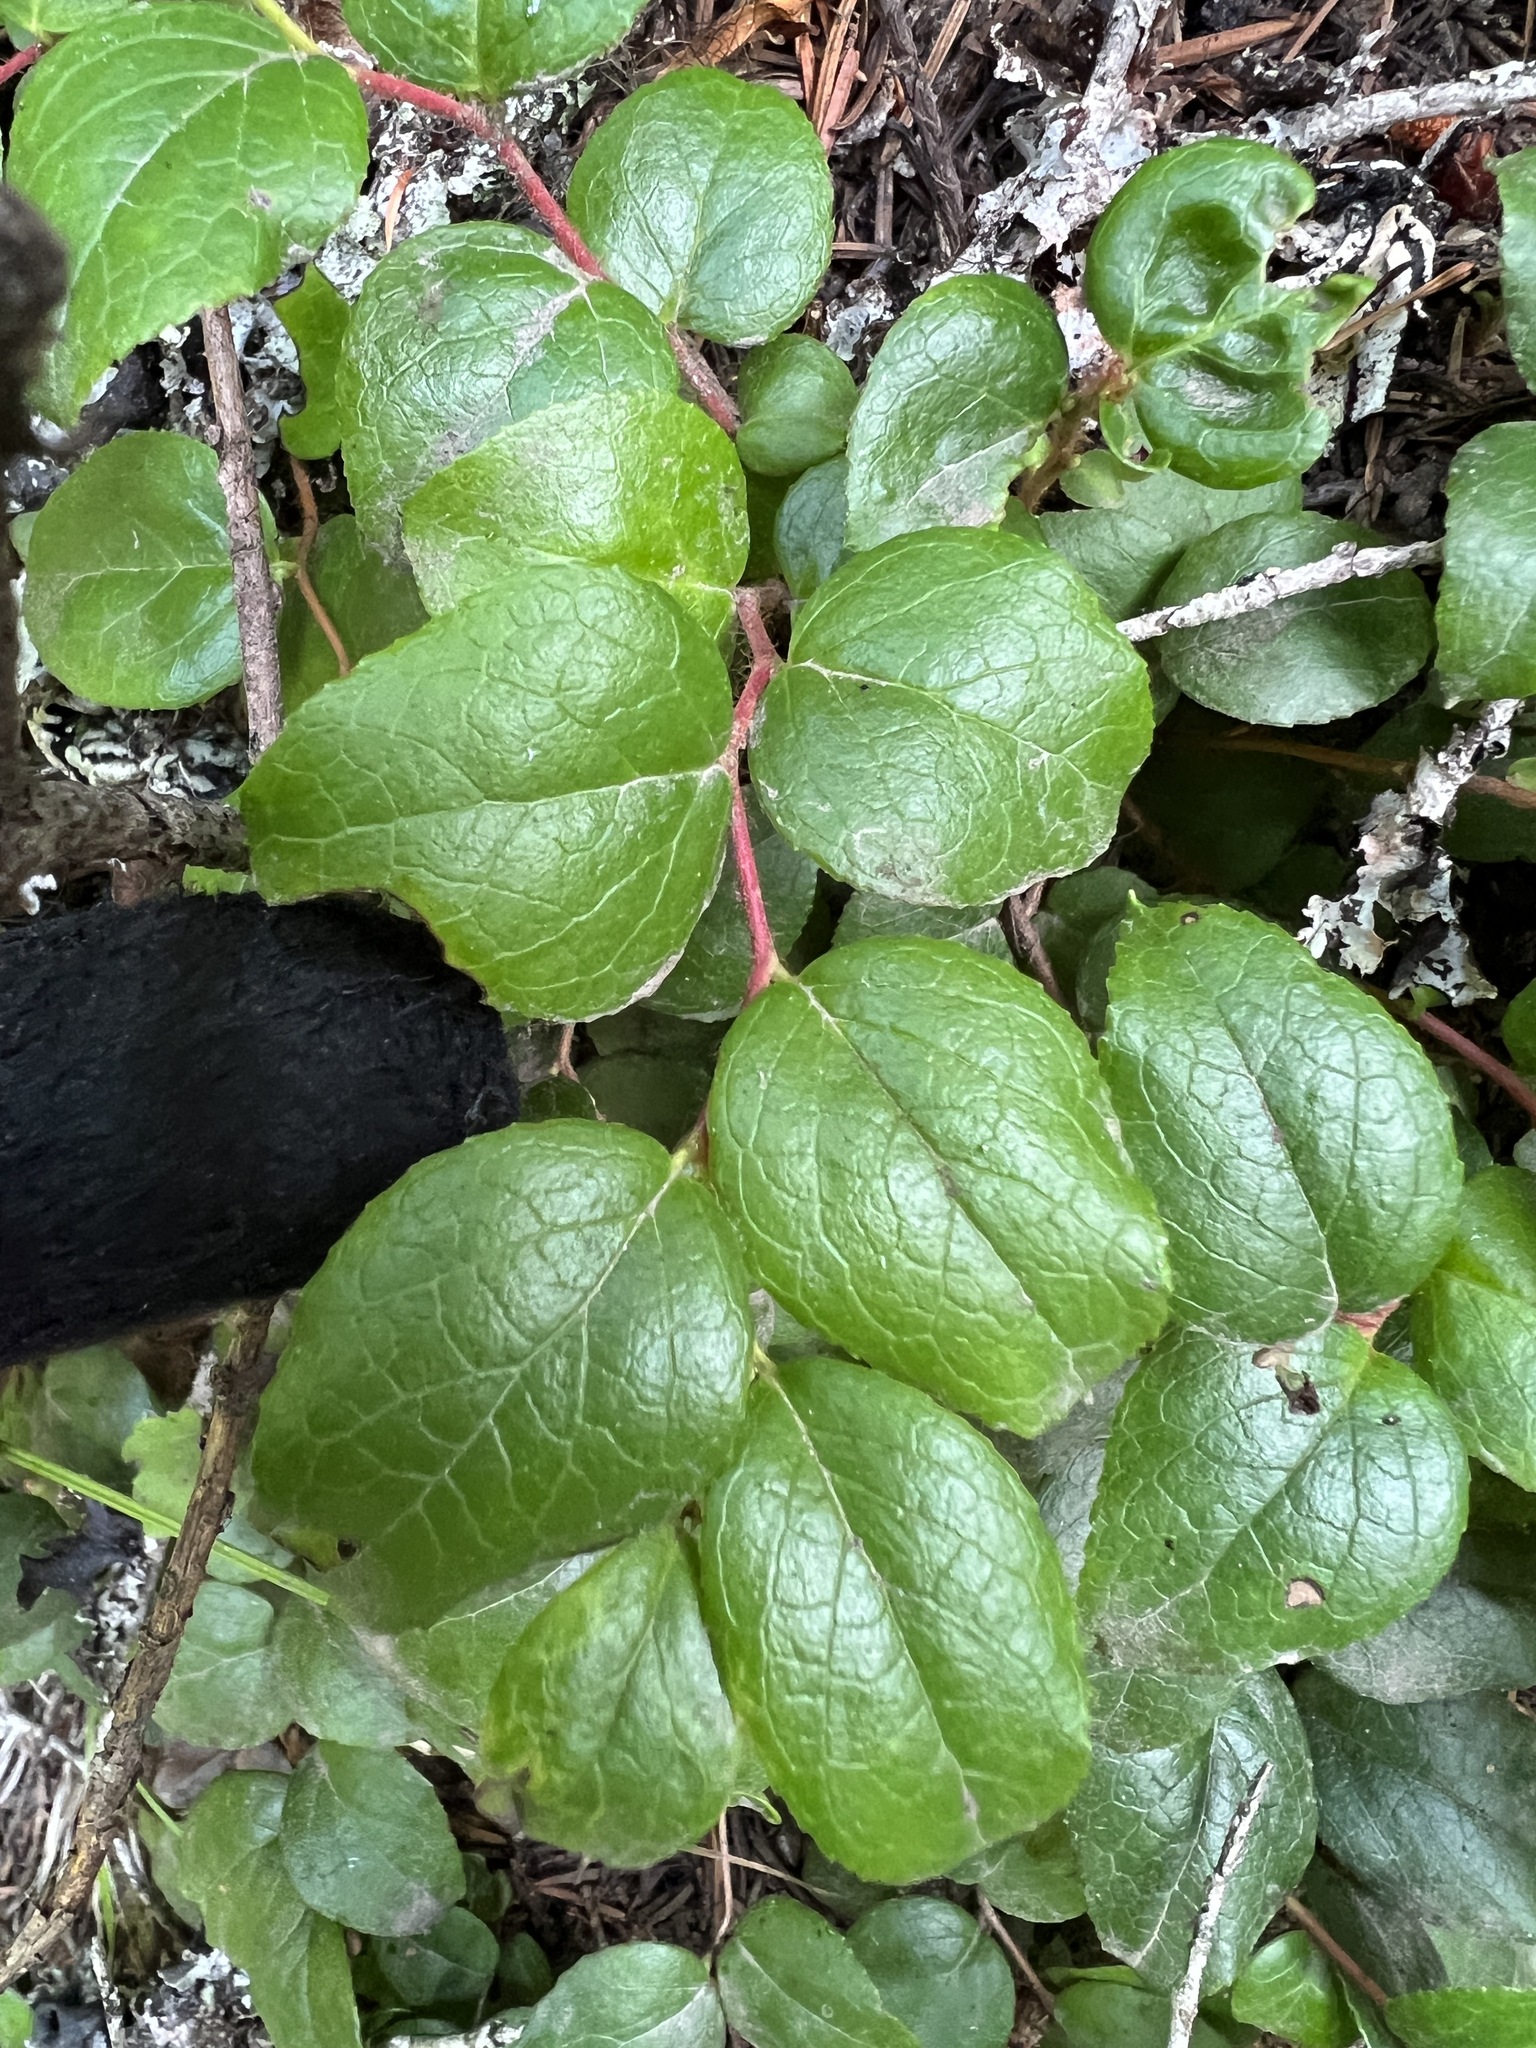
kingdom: Plantae
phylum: Tracheophyta
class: Magnoliopsida
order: Ericales
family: Ericaceae
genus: Gaultheria
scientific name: Gaultheria ovatifolia
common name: Oregon wintergreen
